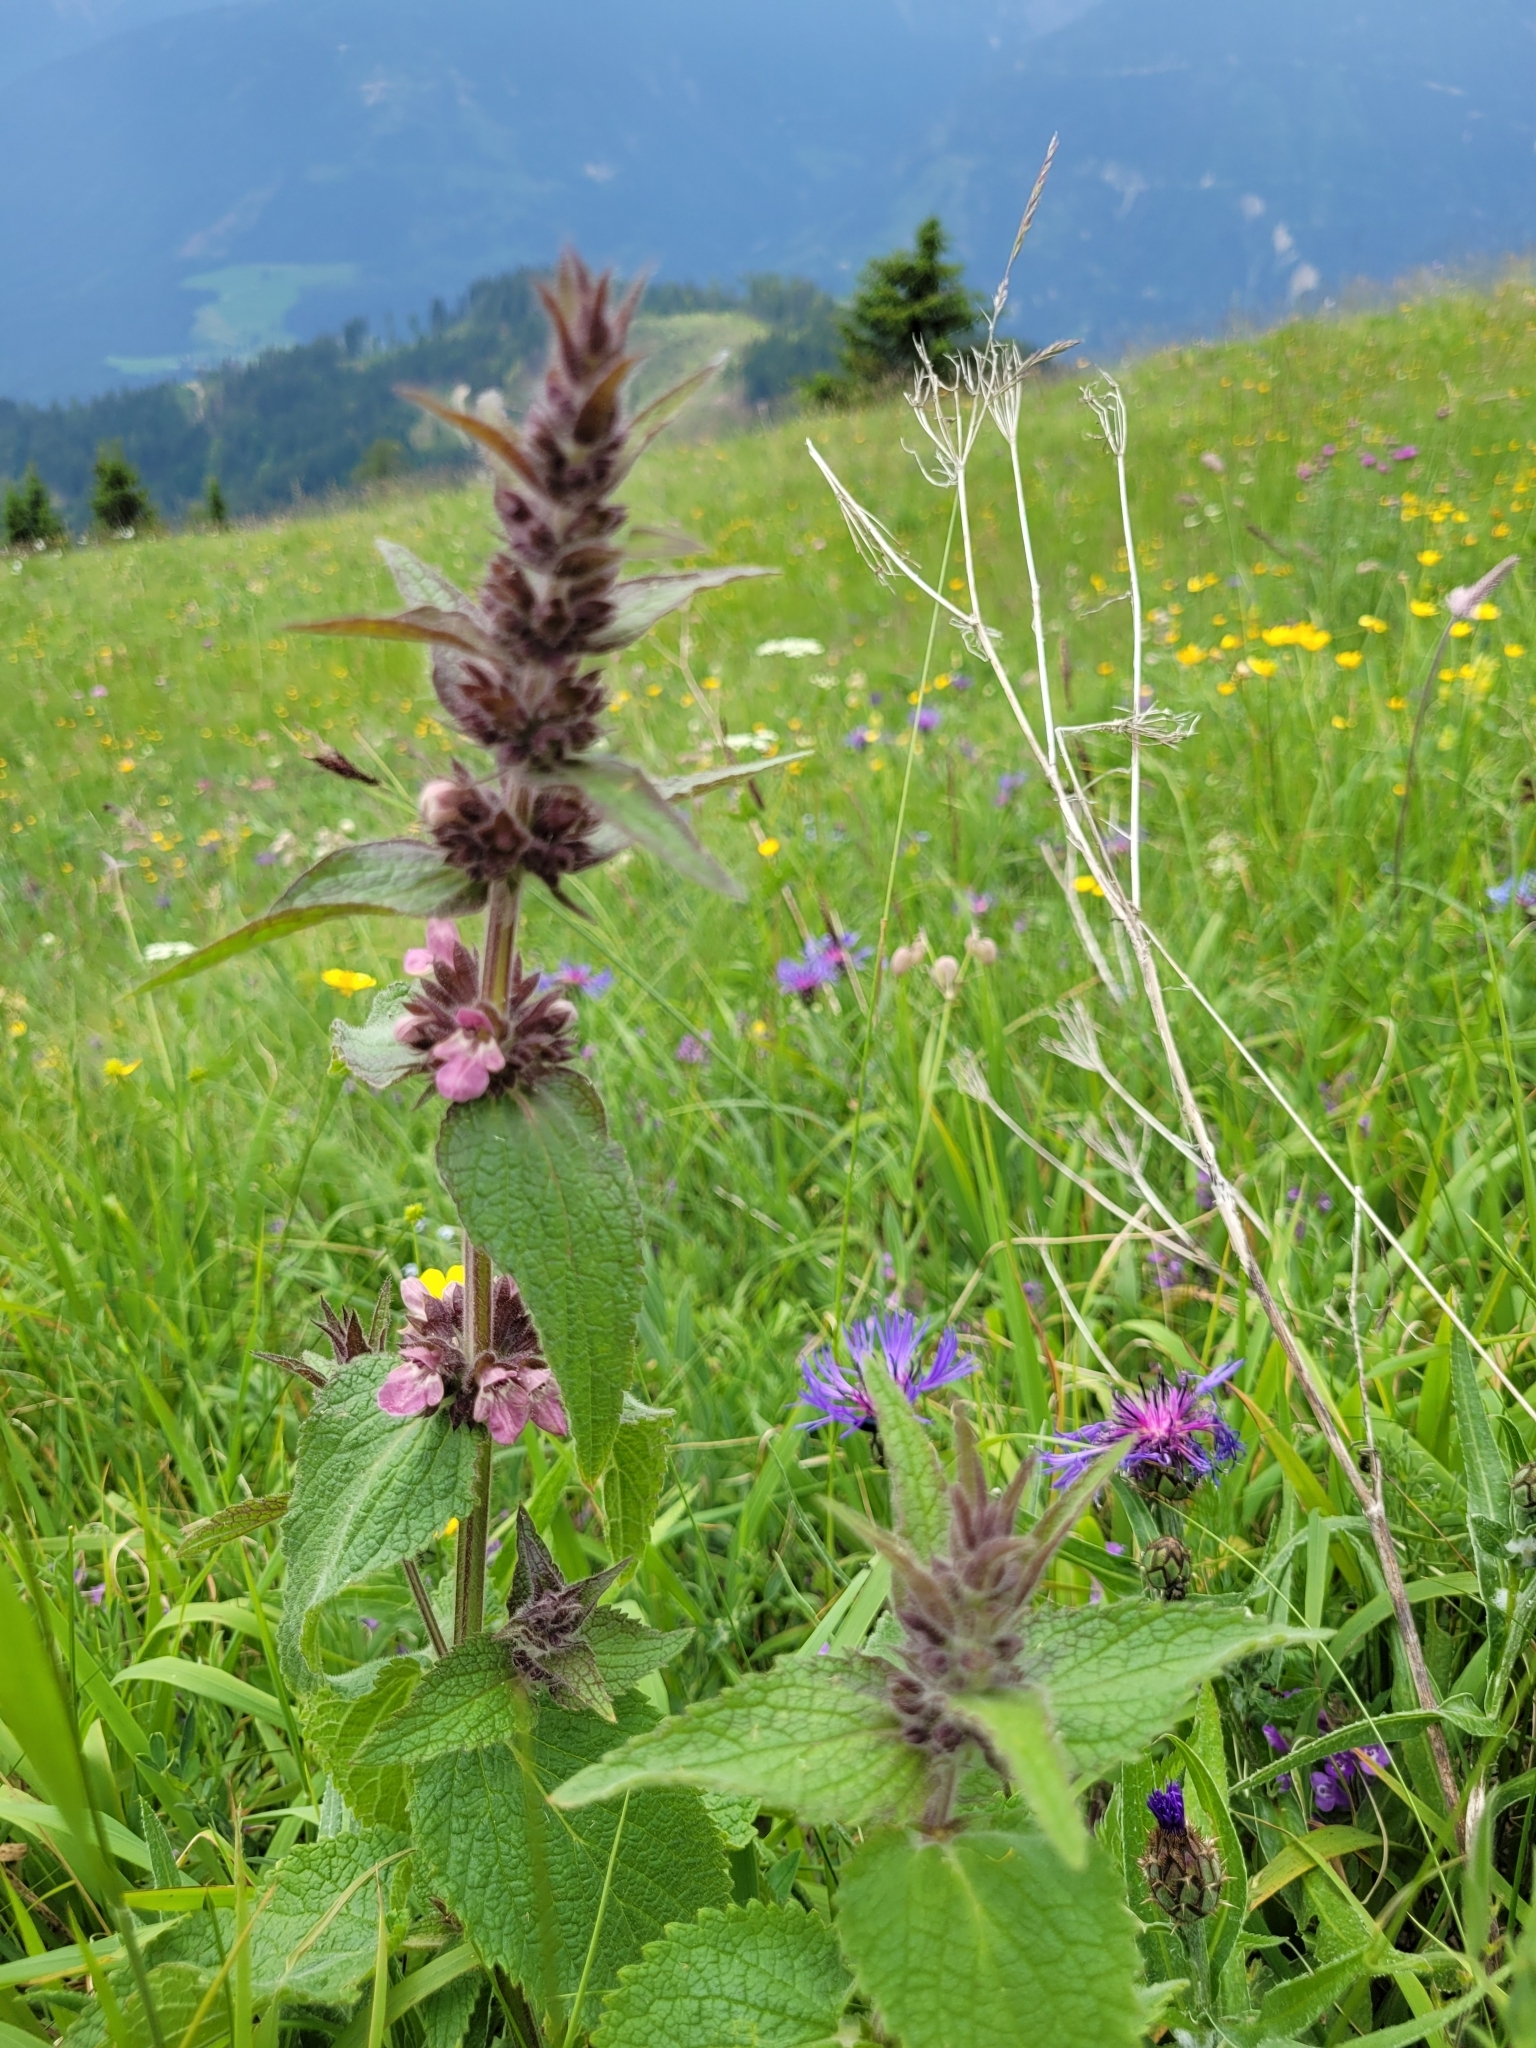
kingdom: Plantae
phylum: Tracheophyta
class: Magnoliopsida
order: Lamiales
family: Lamiaceae
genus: Stachys
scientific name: Stachys alpina
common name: Limestone woundwort
